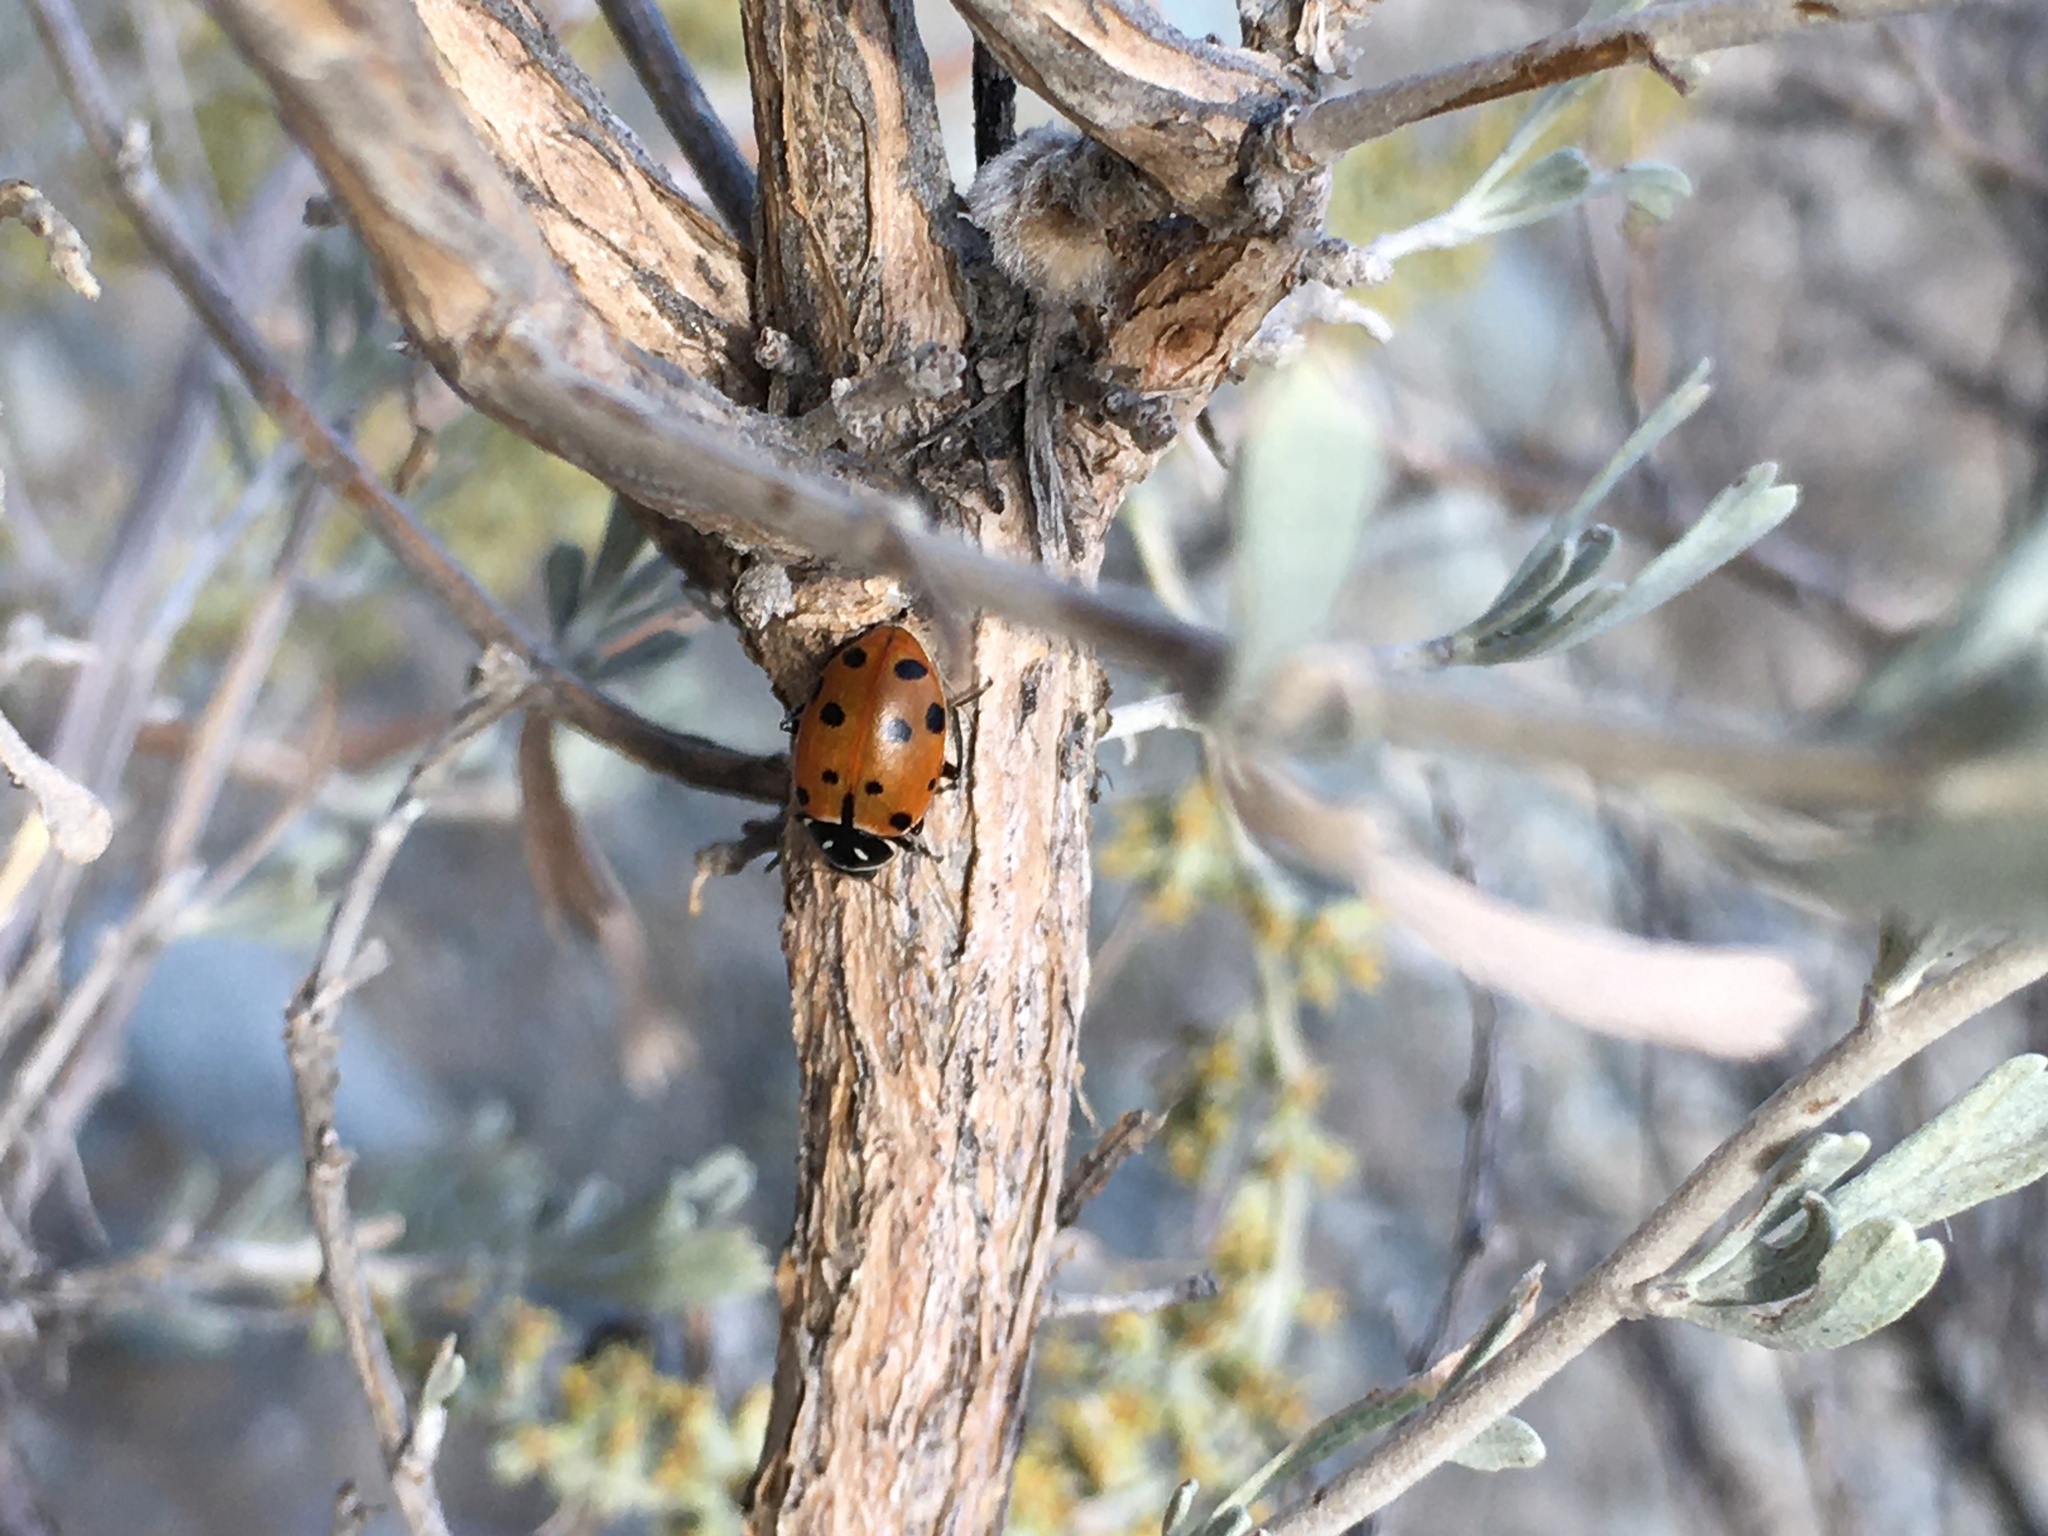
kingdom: Animalia
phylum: Arthropoda
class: Insecta
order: Coleoptera
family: Coccinellidae
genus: Hippodamia
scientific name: Hippodamia convergens
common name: Convergent lady beetle
